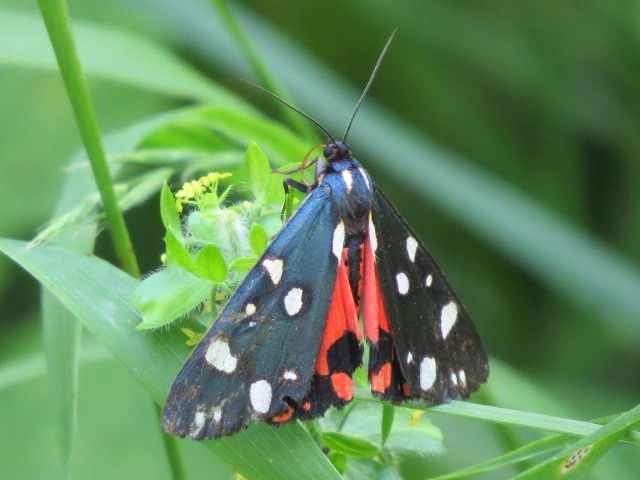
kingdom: Animalia
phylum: Arthropoda
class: Insecta
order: Lepidoptera
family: Erebidae
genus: Callimorpha
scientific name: Callimorpha dominula
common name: Scarlet tiger
